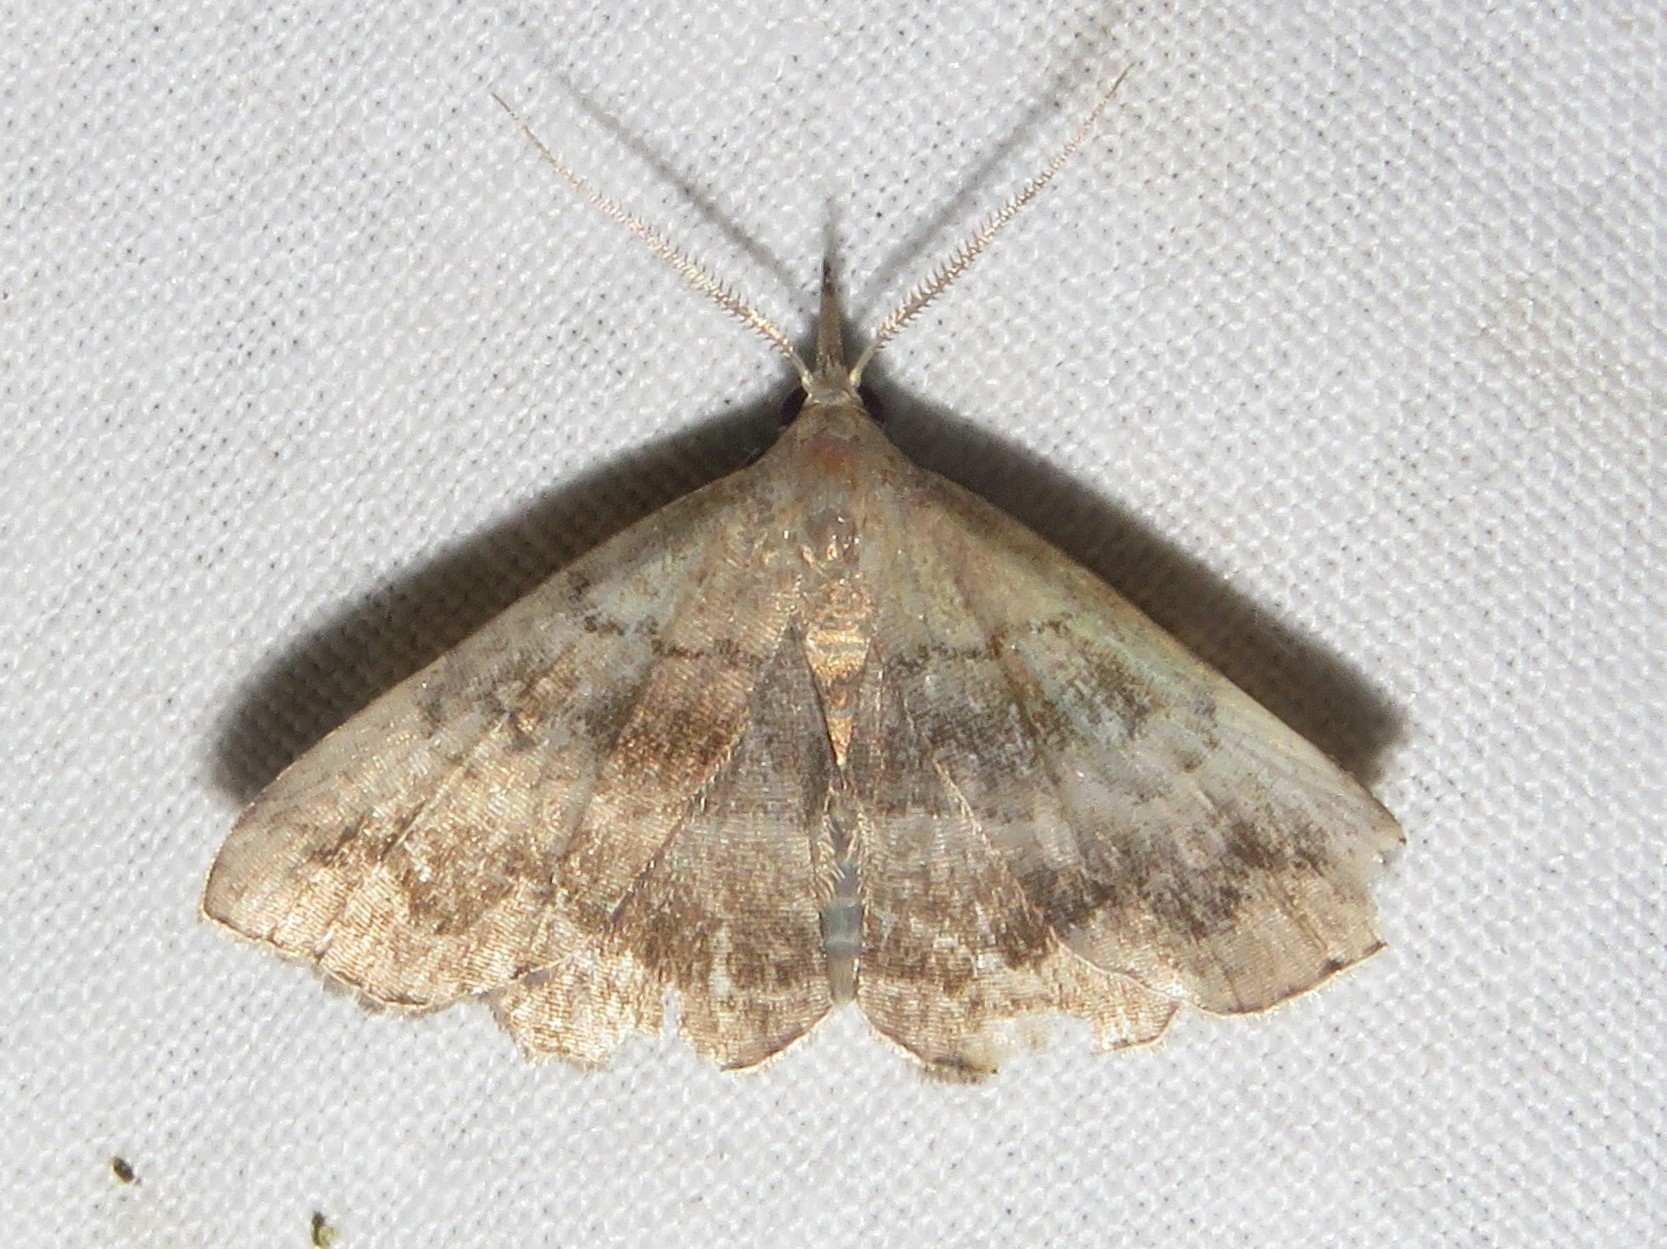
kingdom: Animalia
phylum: Arthropoda
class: Insecta
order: Lepidoptera
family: Erebidae
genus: Phalaenostola
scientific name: Phalaenostola larentioides
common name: Black-banded owlet
